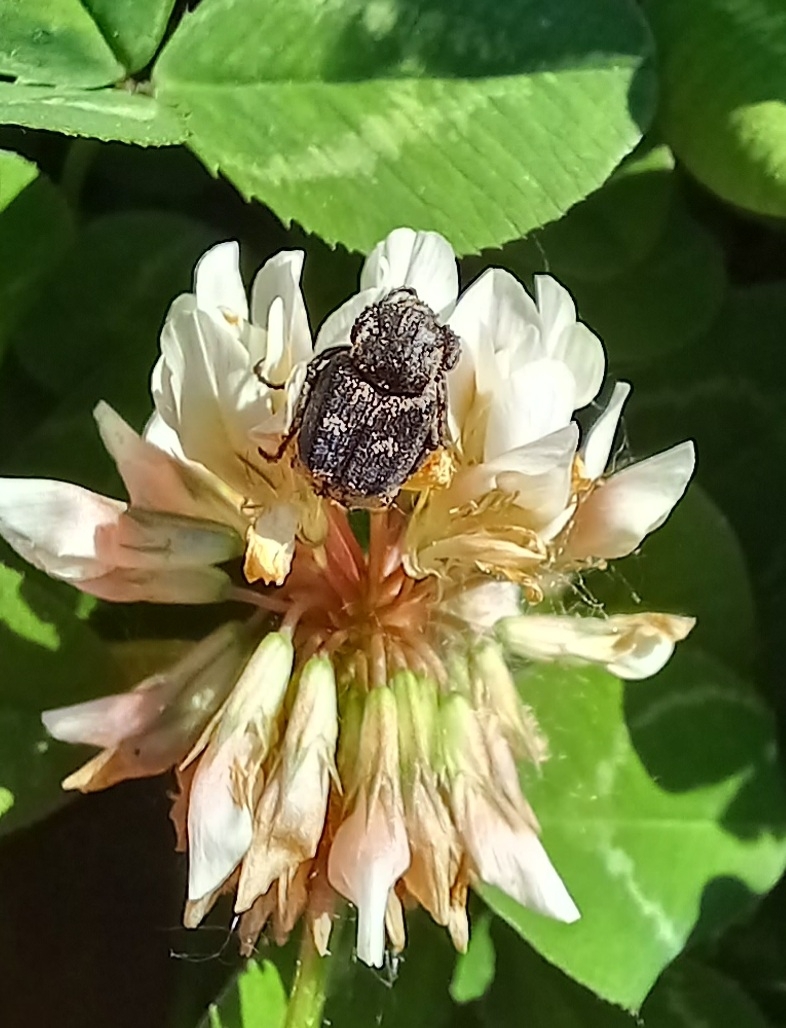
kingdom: Animalia
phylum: Arthropoda
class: Insecta
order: Coleoptera
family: Scarabaeidae
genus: Valgus
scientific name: Valgus hemipterus
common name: Bug flower chafer
